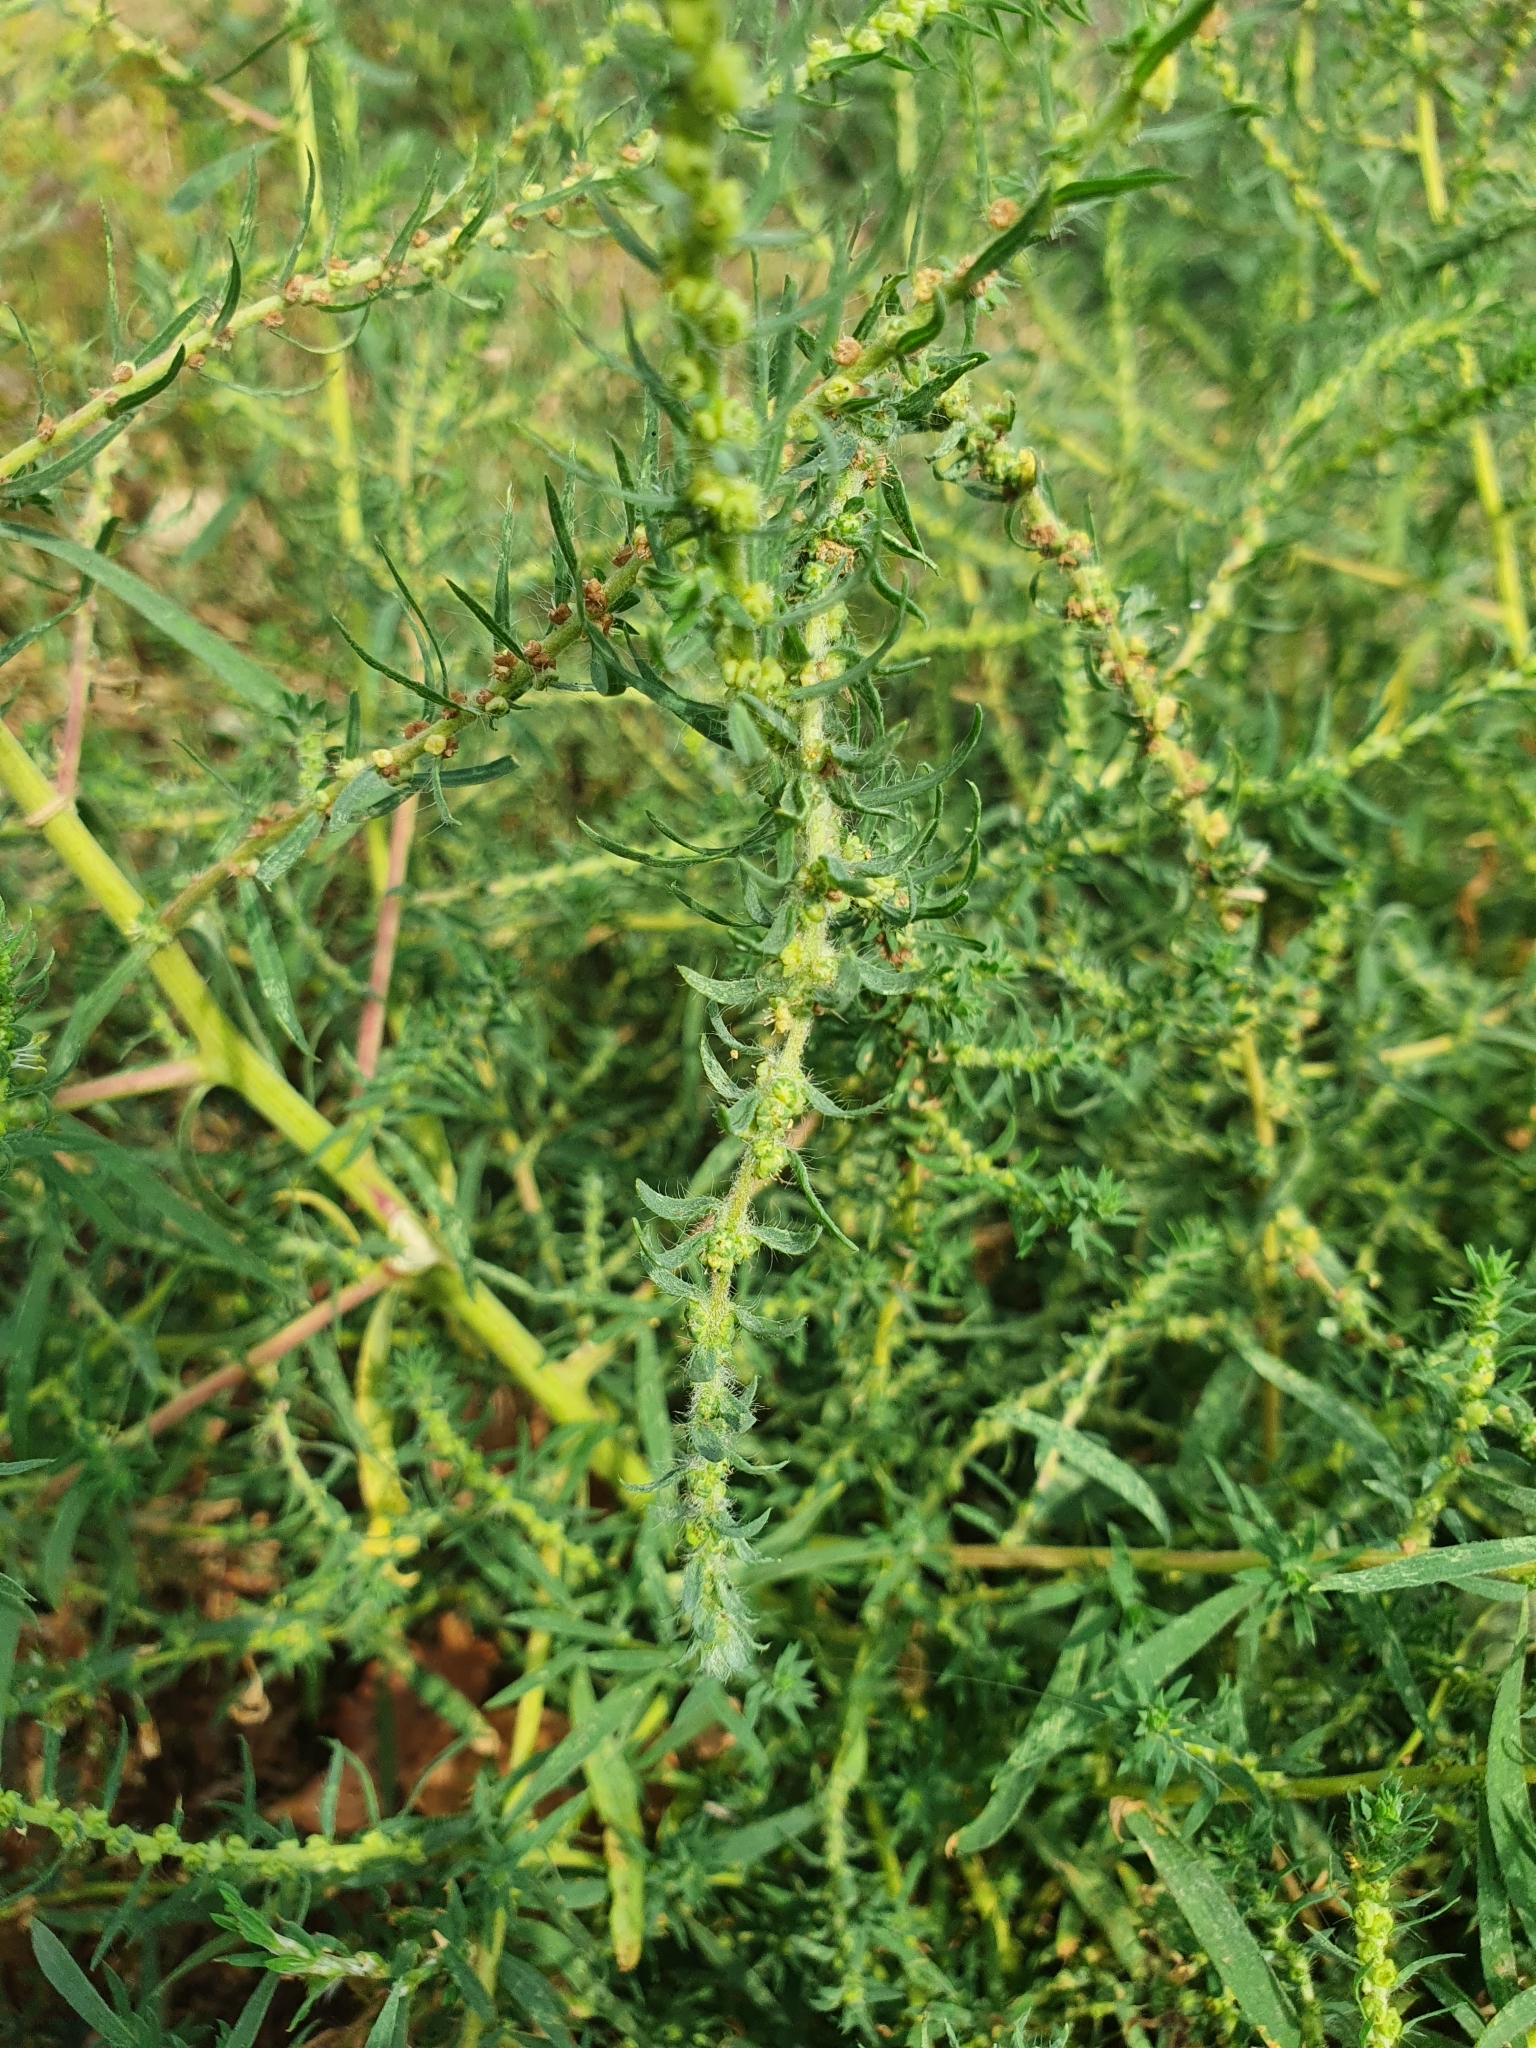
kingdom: Plantae
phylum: Tracheophyta
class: Magnoliopsida
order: Caryophyllales
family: Amaranthaceae
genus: Bassia
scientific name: Bassia scoparia
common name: Belvedere
